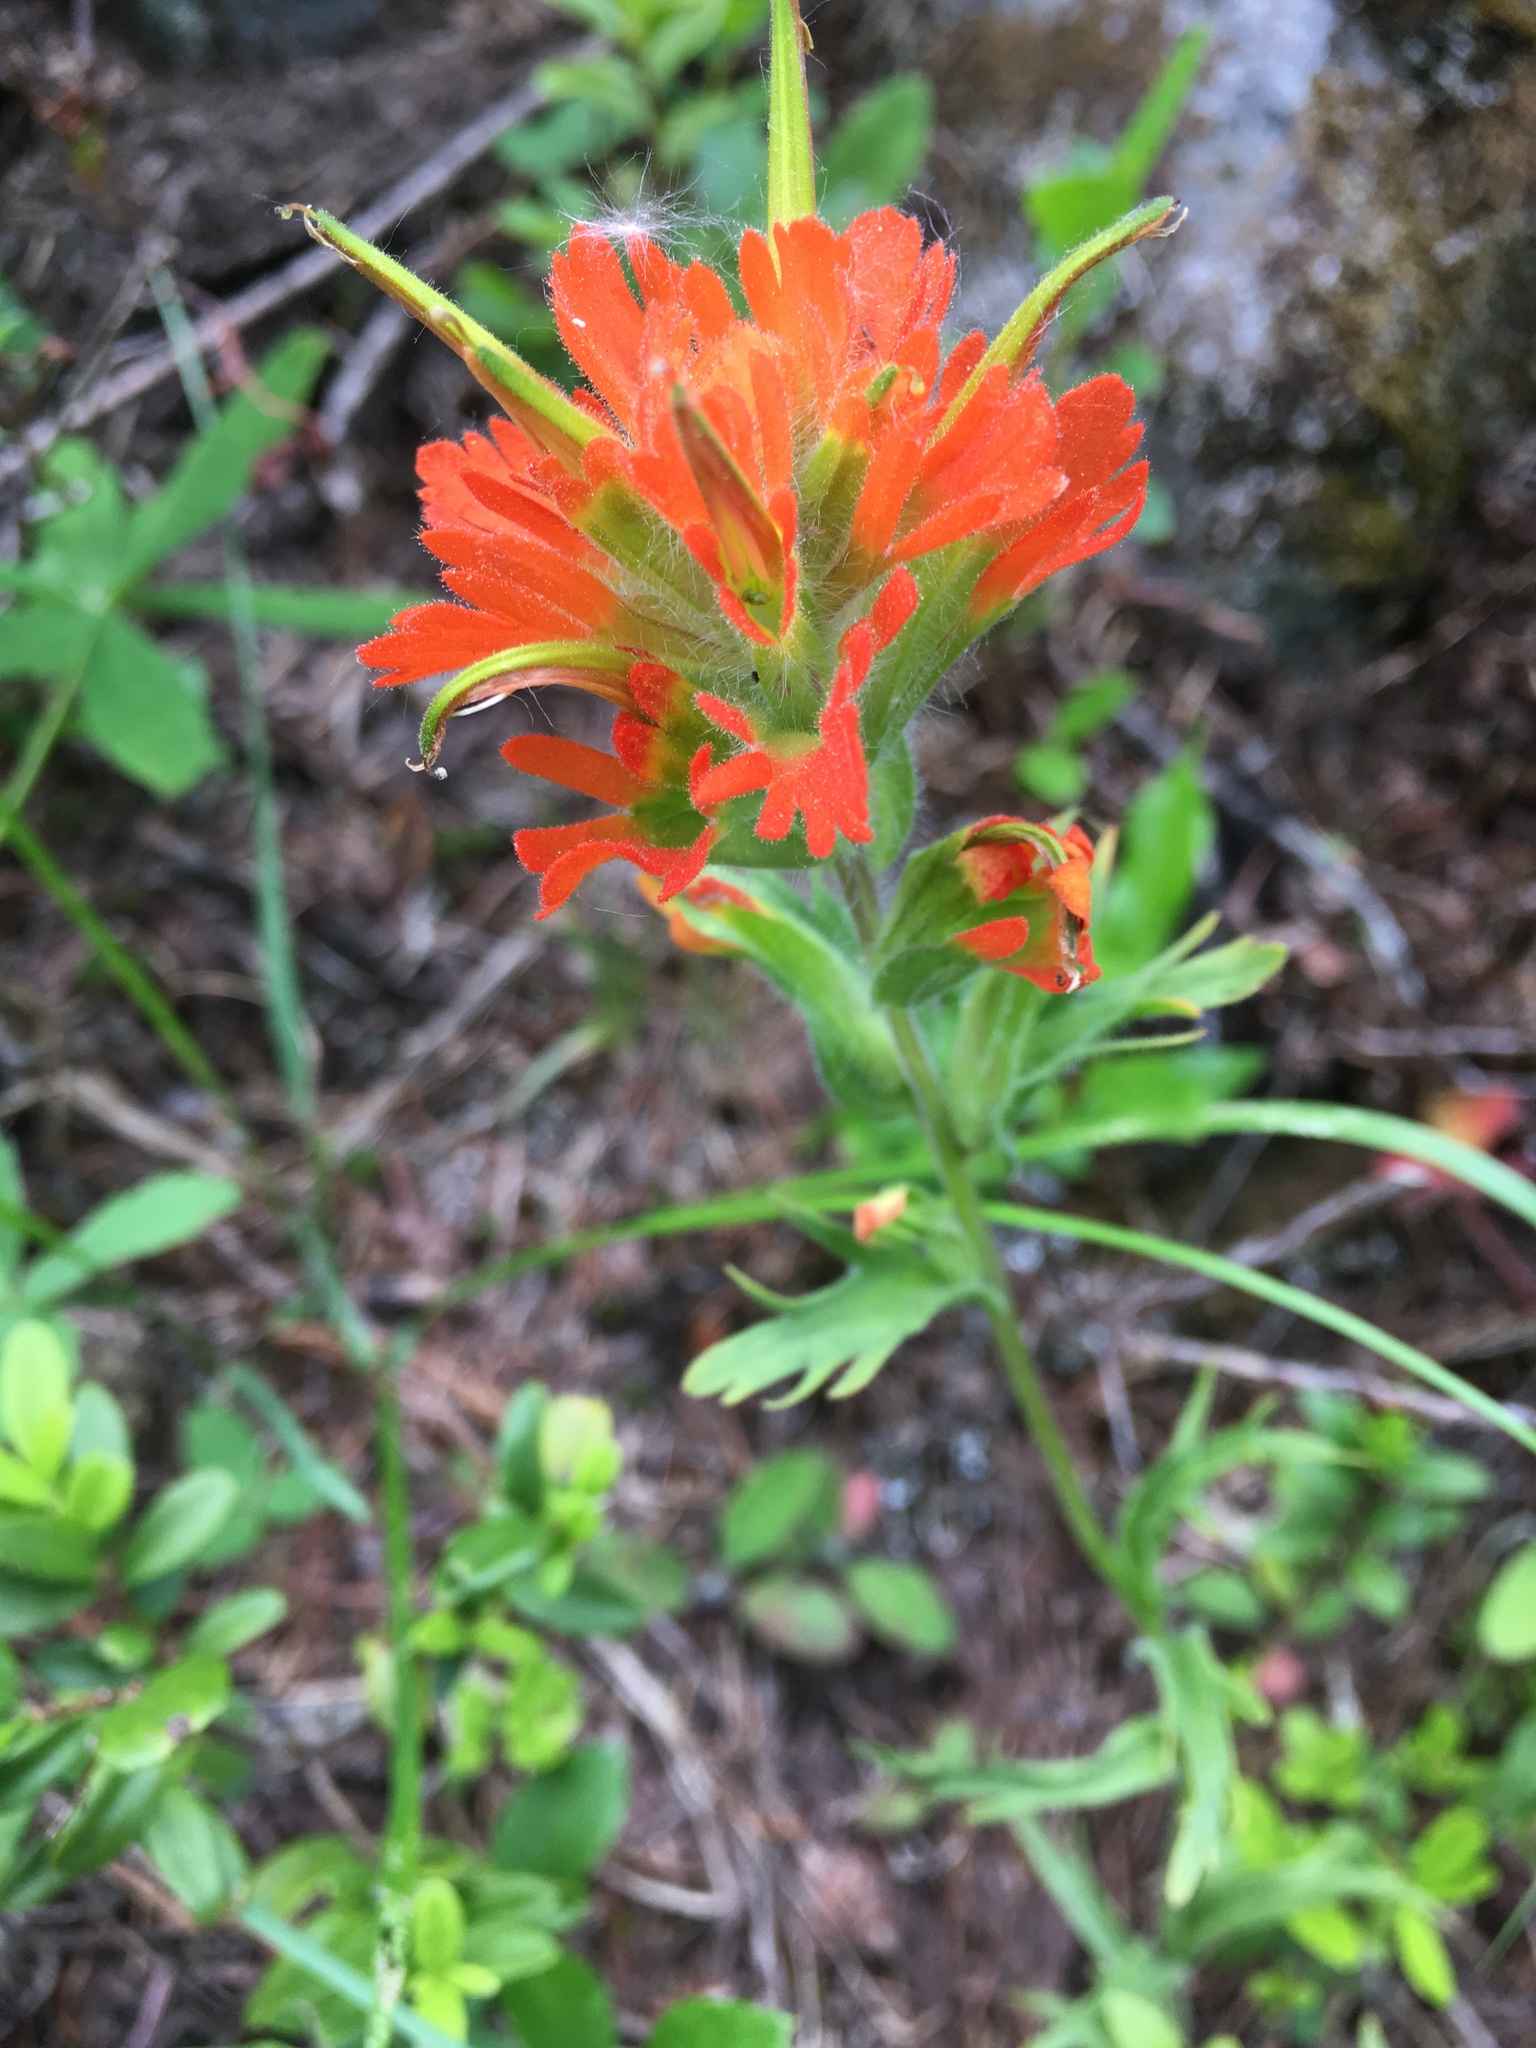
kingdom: Plantae
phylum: Tracheophyta
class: Magnoliopsida
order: Lamiales
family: Orobanchaceae
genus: Castilleja
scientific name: Castilleja hispida
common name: Bristly paintbrush
